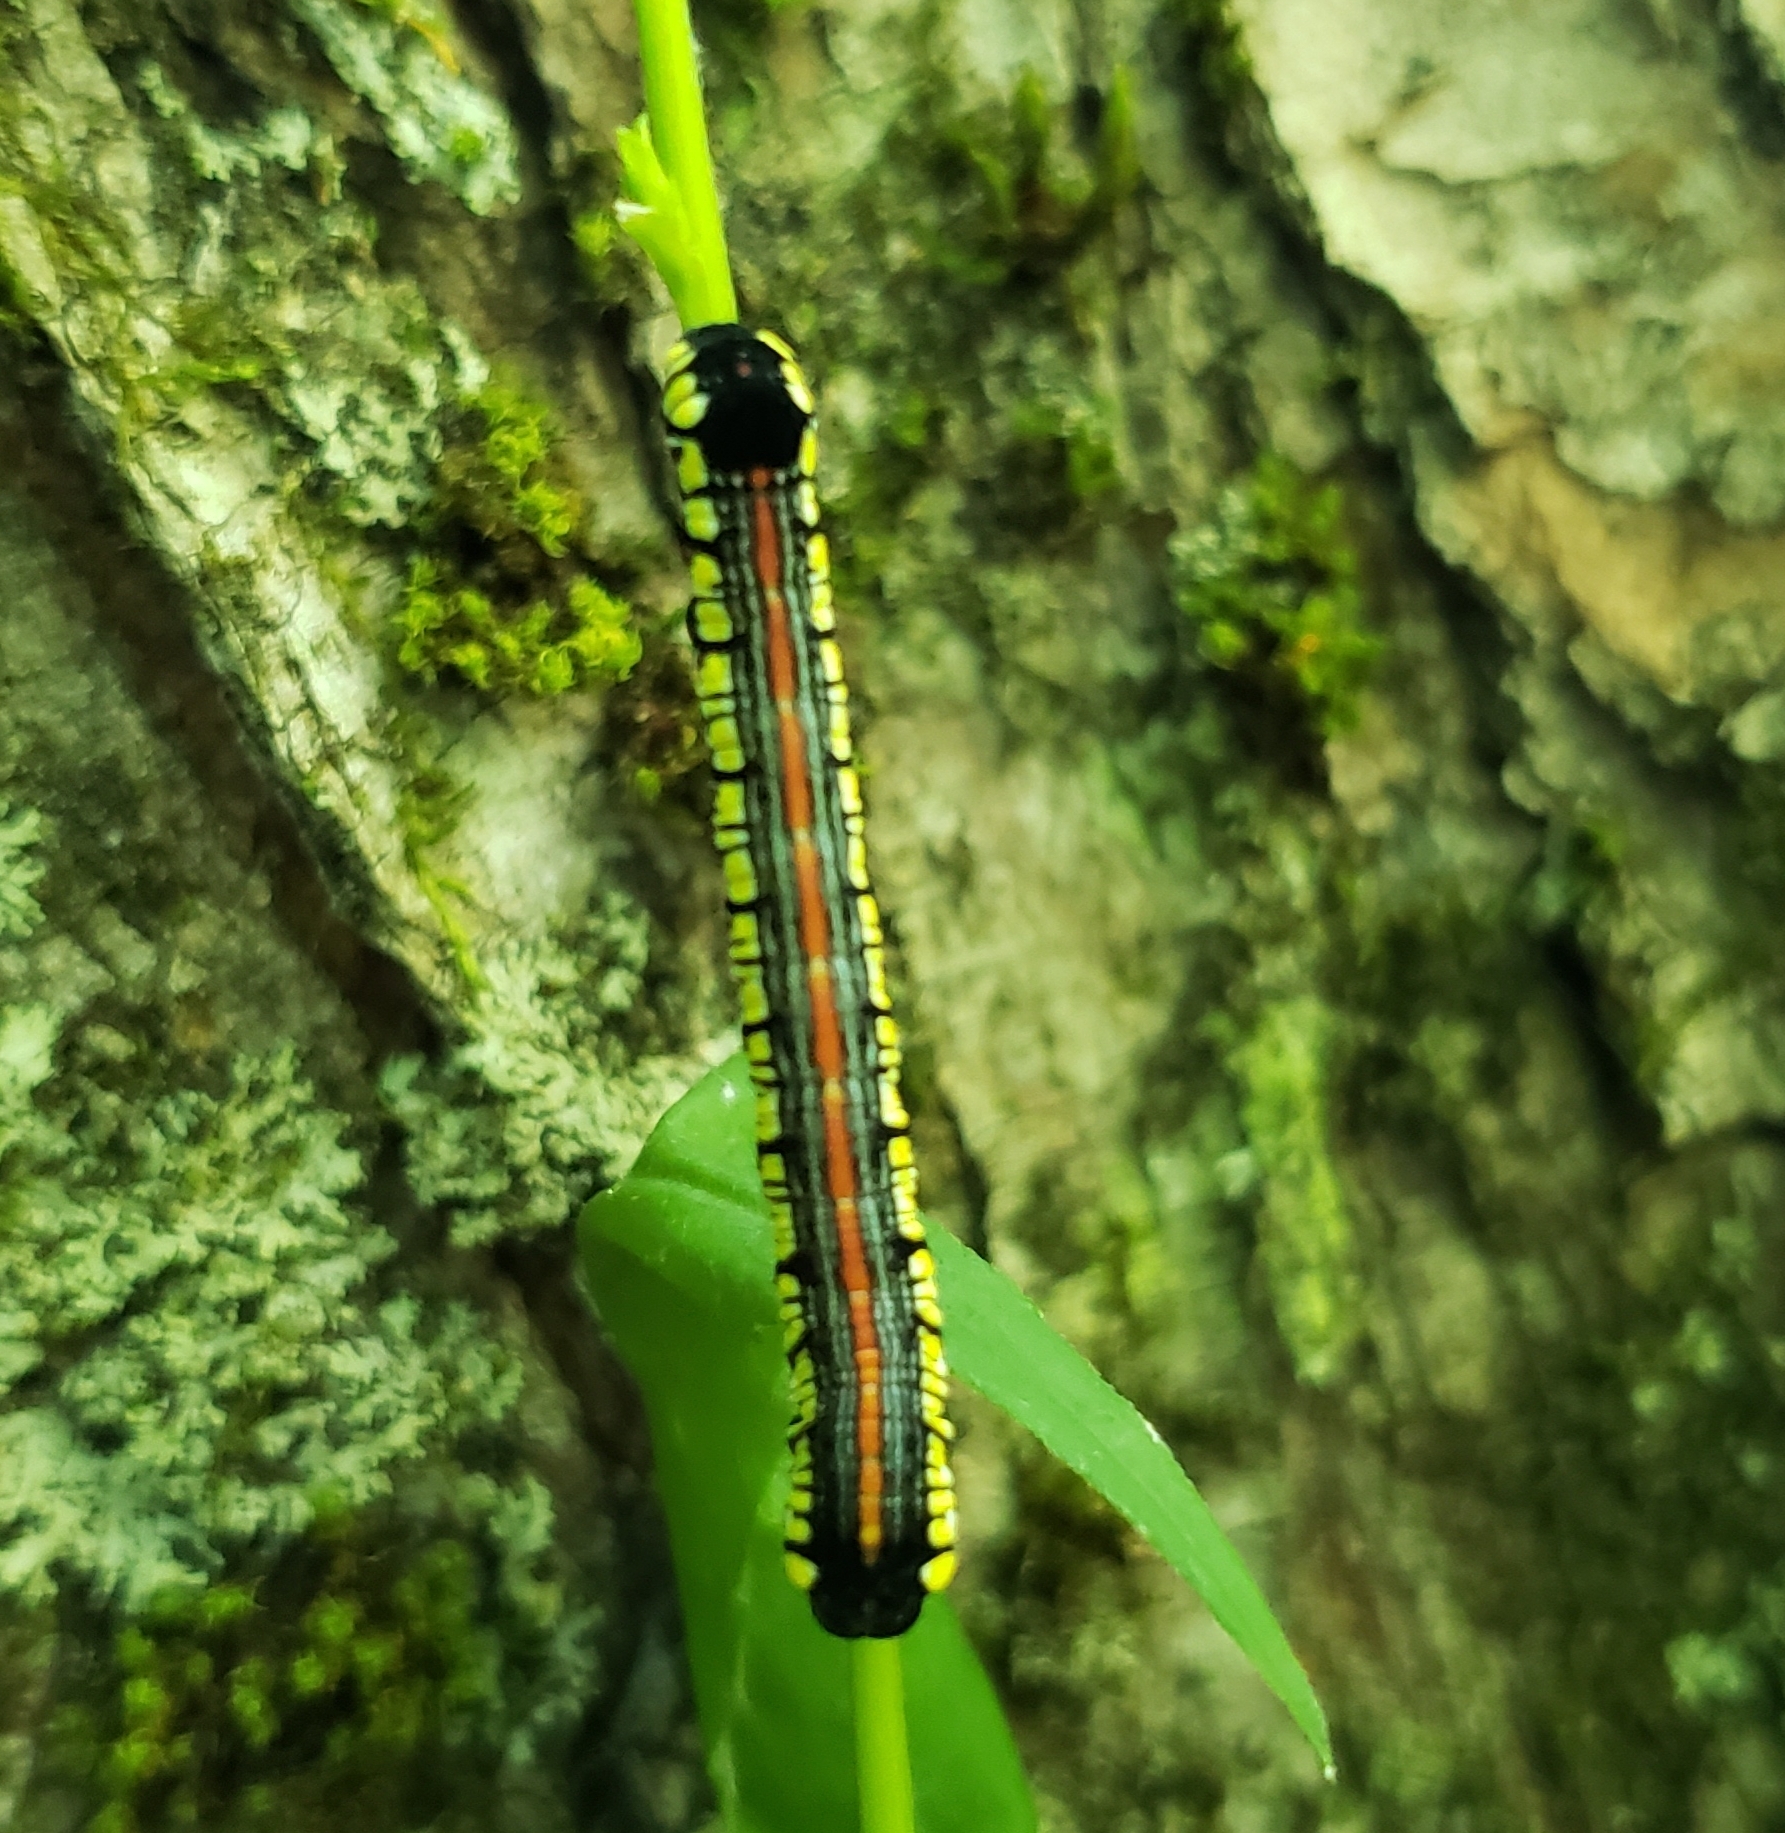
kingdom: Animalia
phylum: Arthropoda
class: Insecta
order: Lepidoptera
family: Noctuidae
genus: Cucullia
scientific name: Cucullia convexipennis
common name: Brown-hooded owlet
